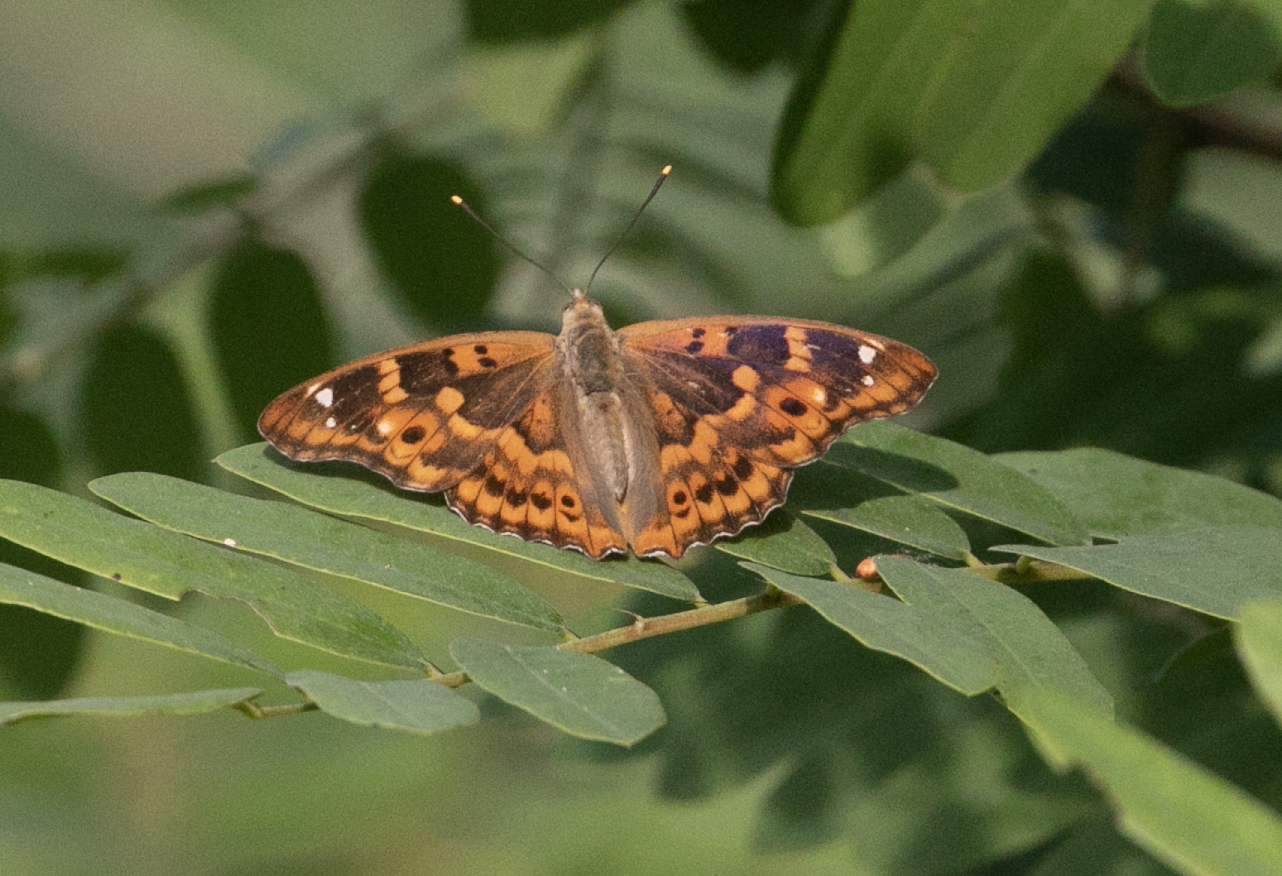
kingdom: Animalia
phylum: Arthropoda
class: Insecta
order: Lepidoptera
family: Nymphalidae
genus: Apatura
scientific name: Apatura ilia
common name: Lesser purple emperor
